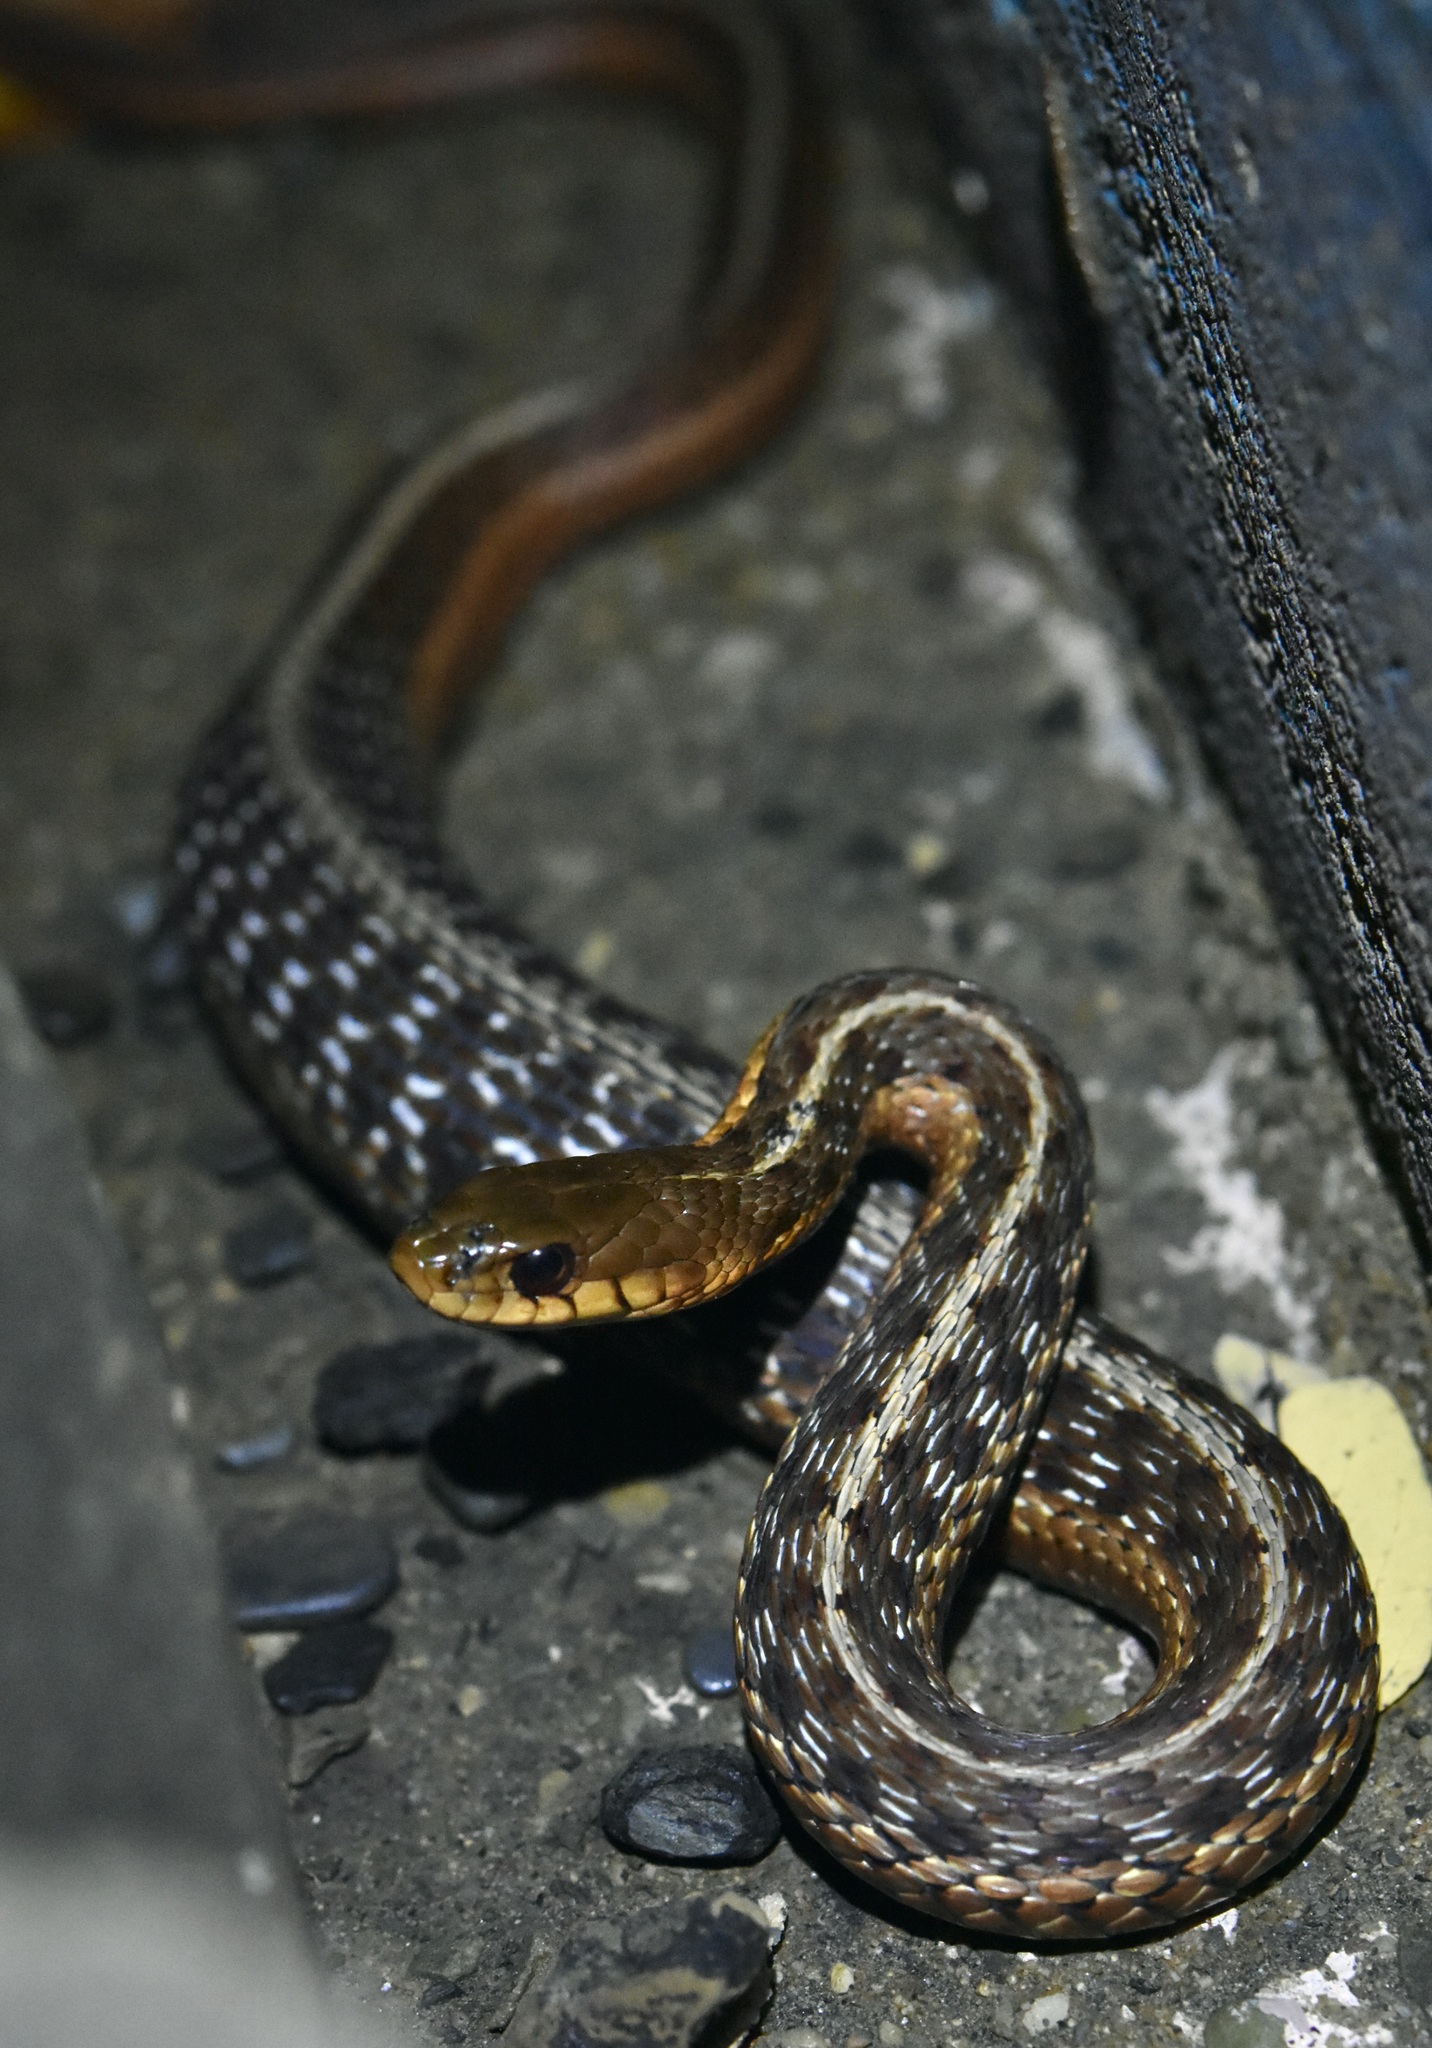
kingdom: Animalia
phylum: Chordata
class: Squamata
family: Colubridae
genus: Thamnophis
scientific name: Thamnophis sirtalis
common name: Common garter snake
